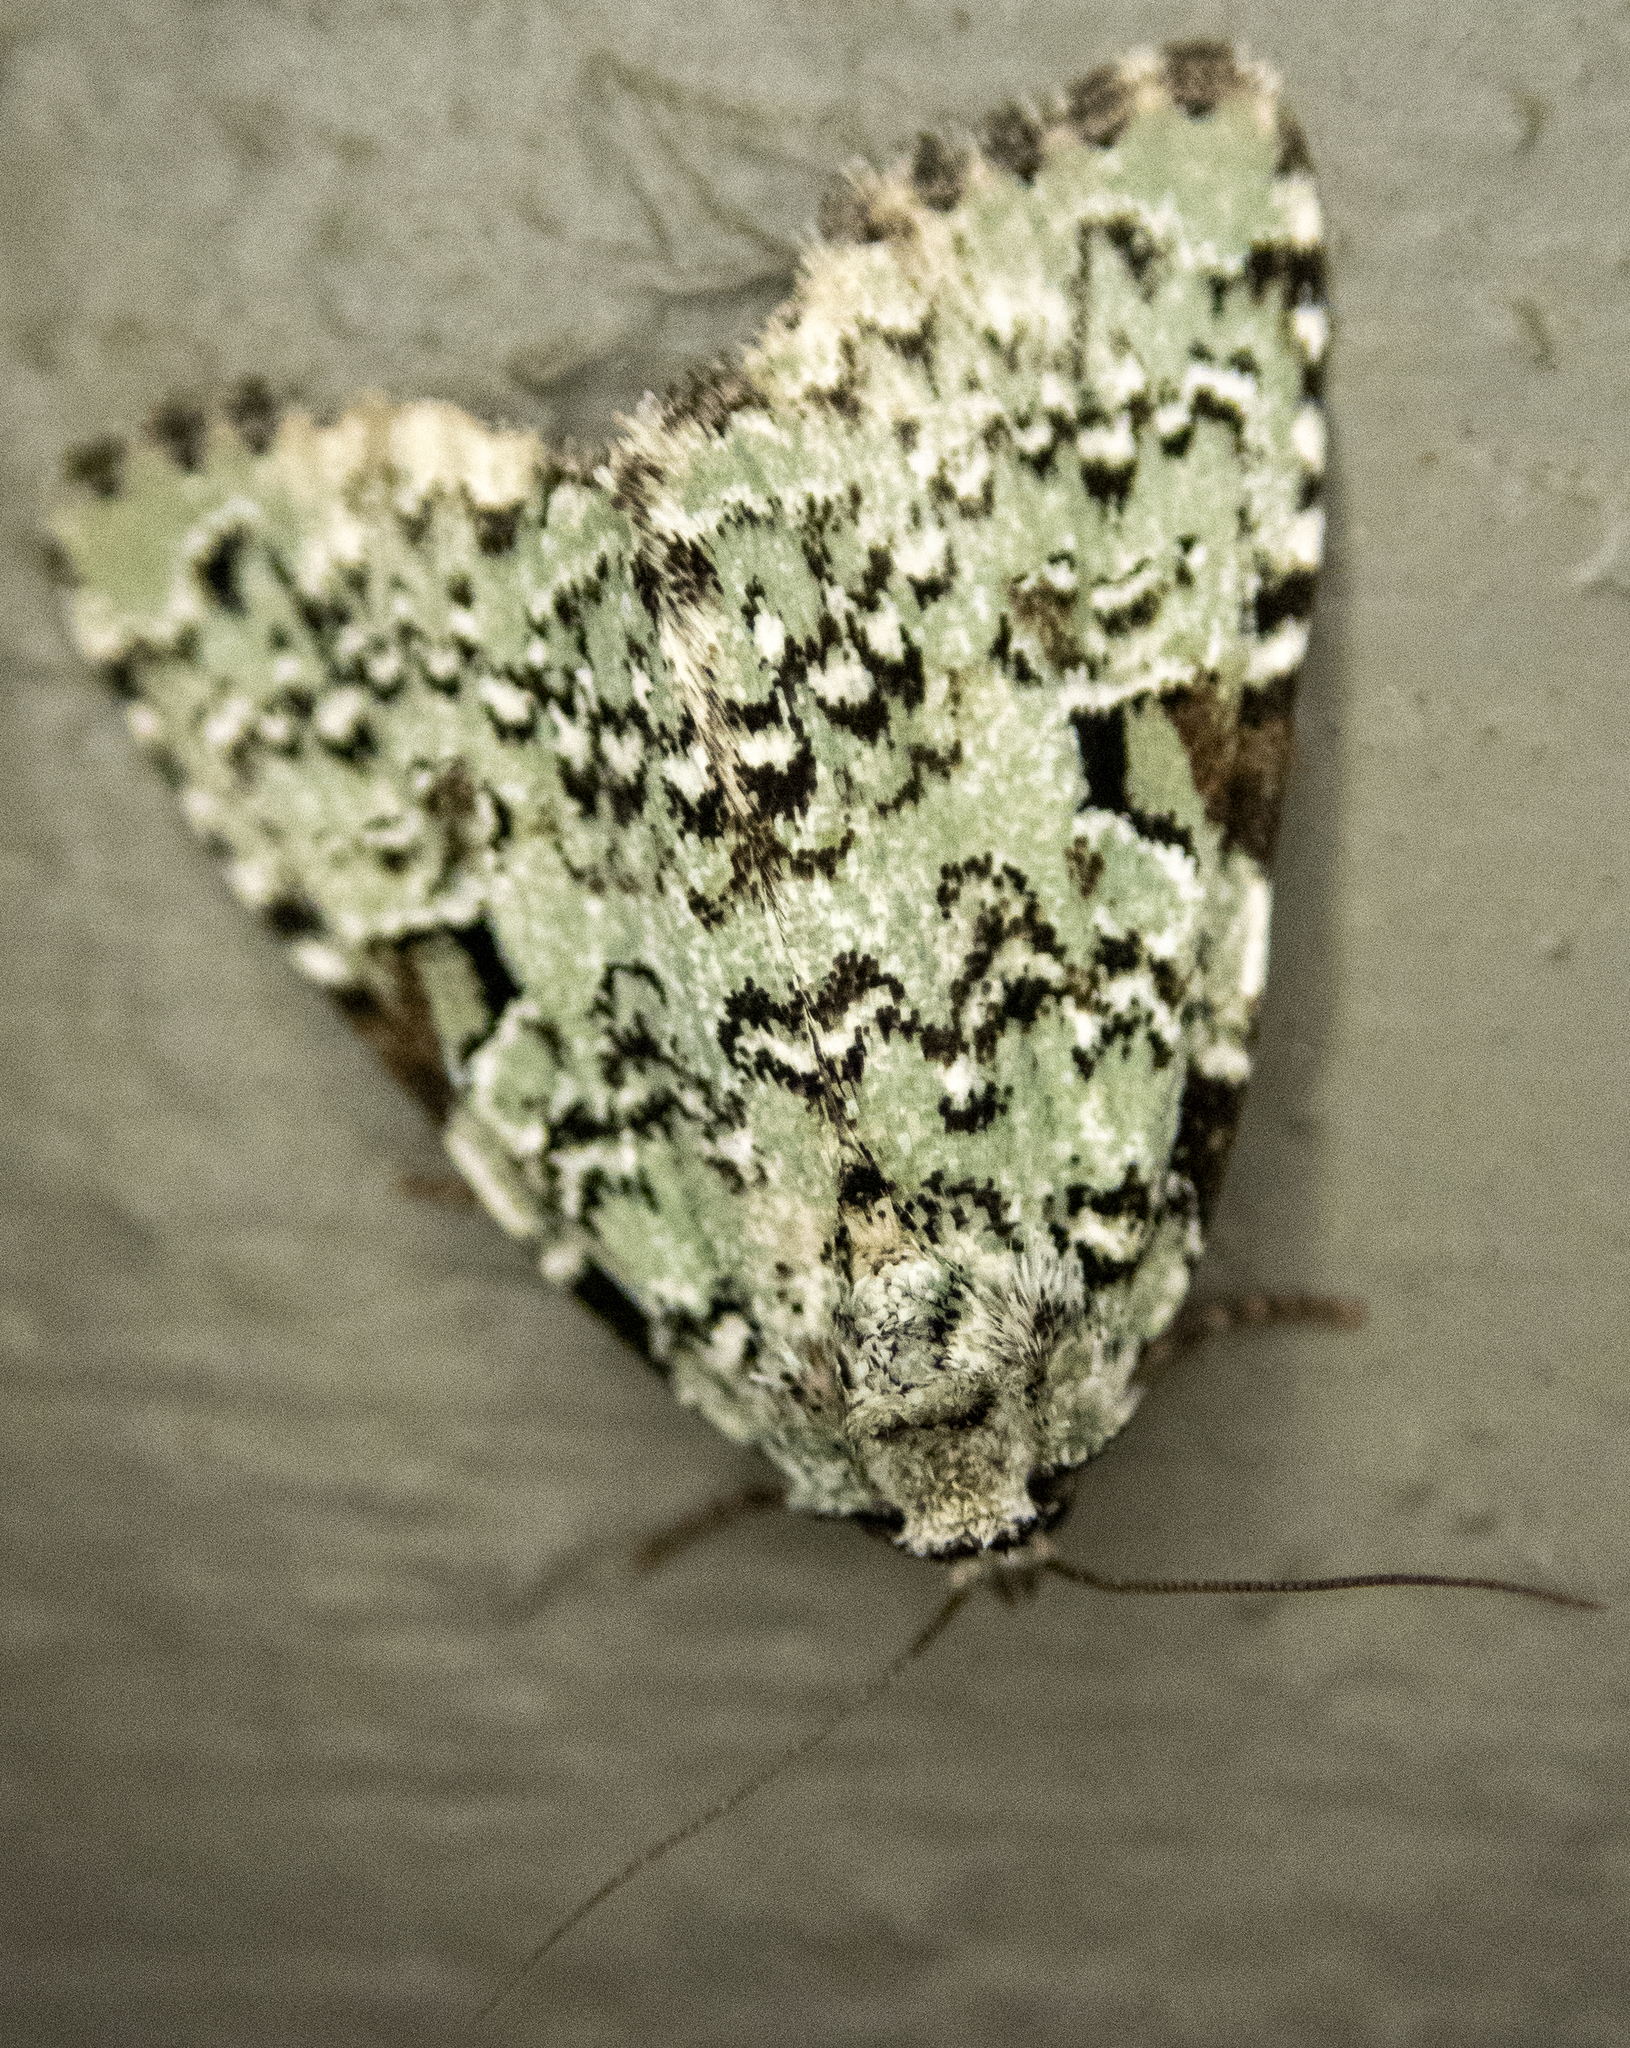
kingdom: Animalia
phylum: Arthropoda
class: Insecta
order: Lepidoptera
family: Noctuidae
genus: Leuconycta
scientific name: Leuconycta diphteroides
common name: Green leuconycta moth
